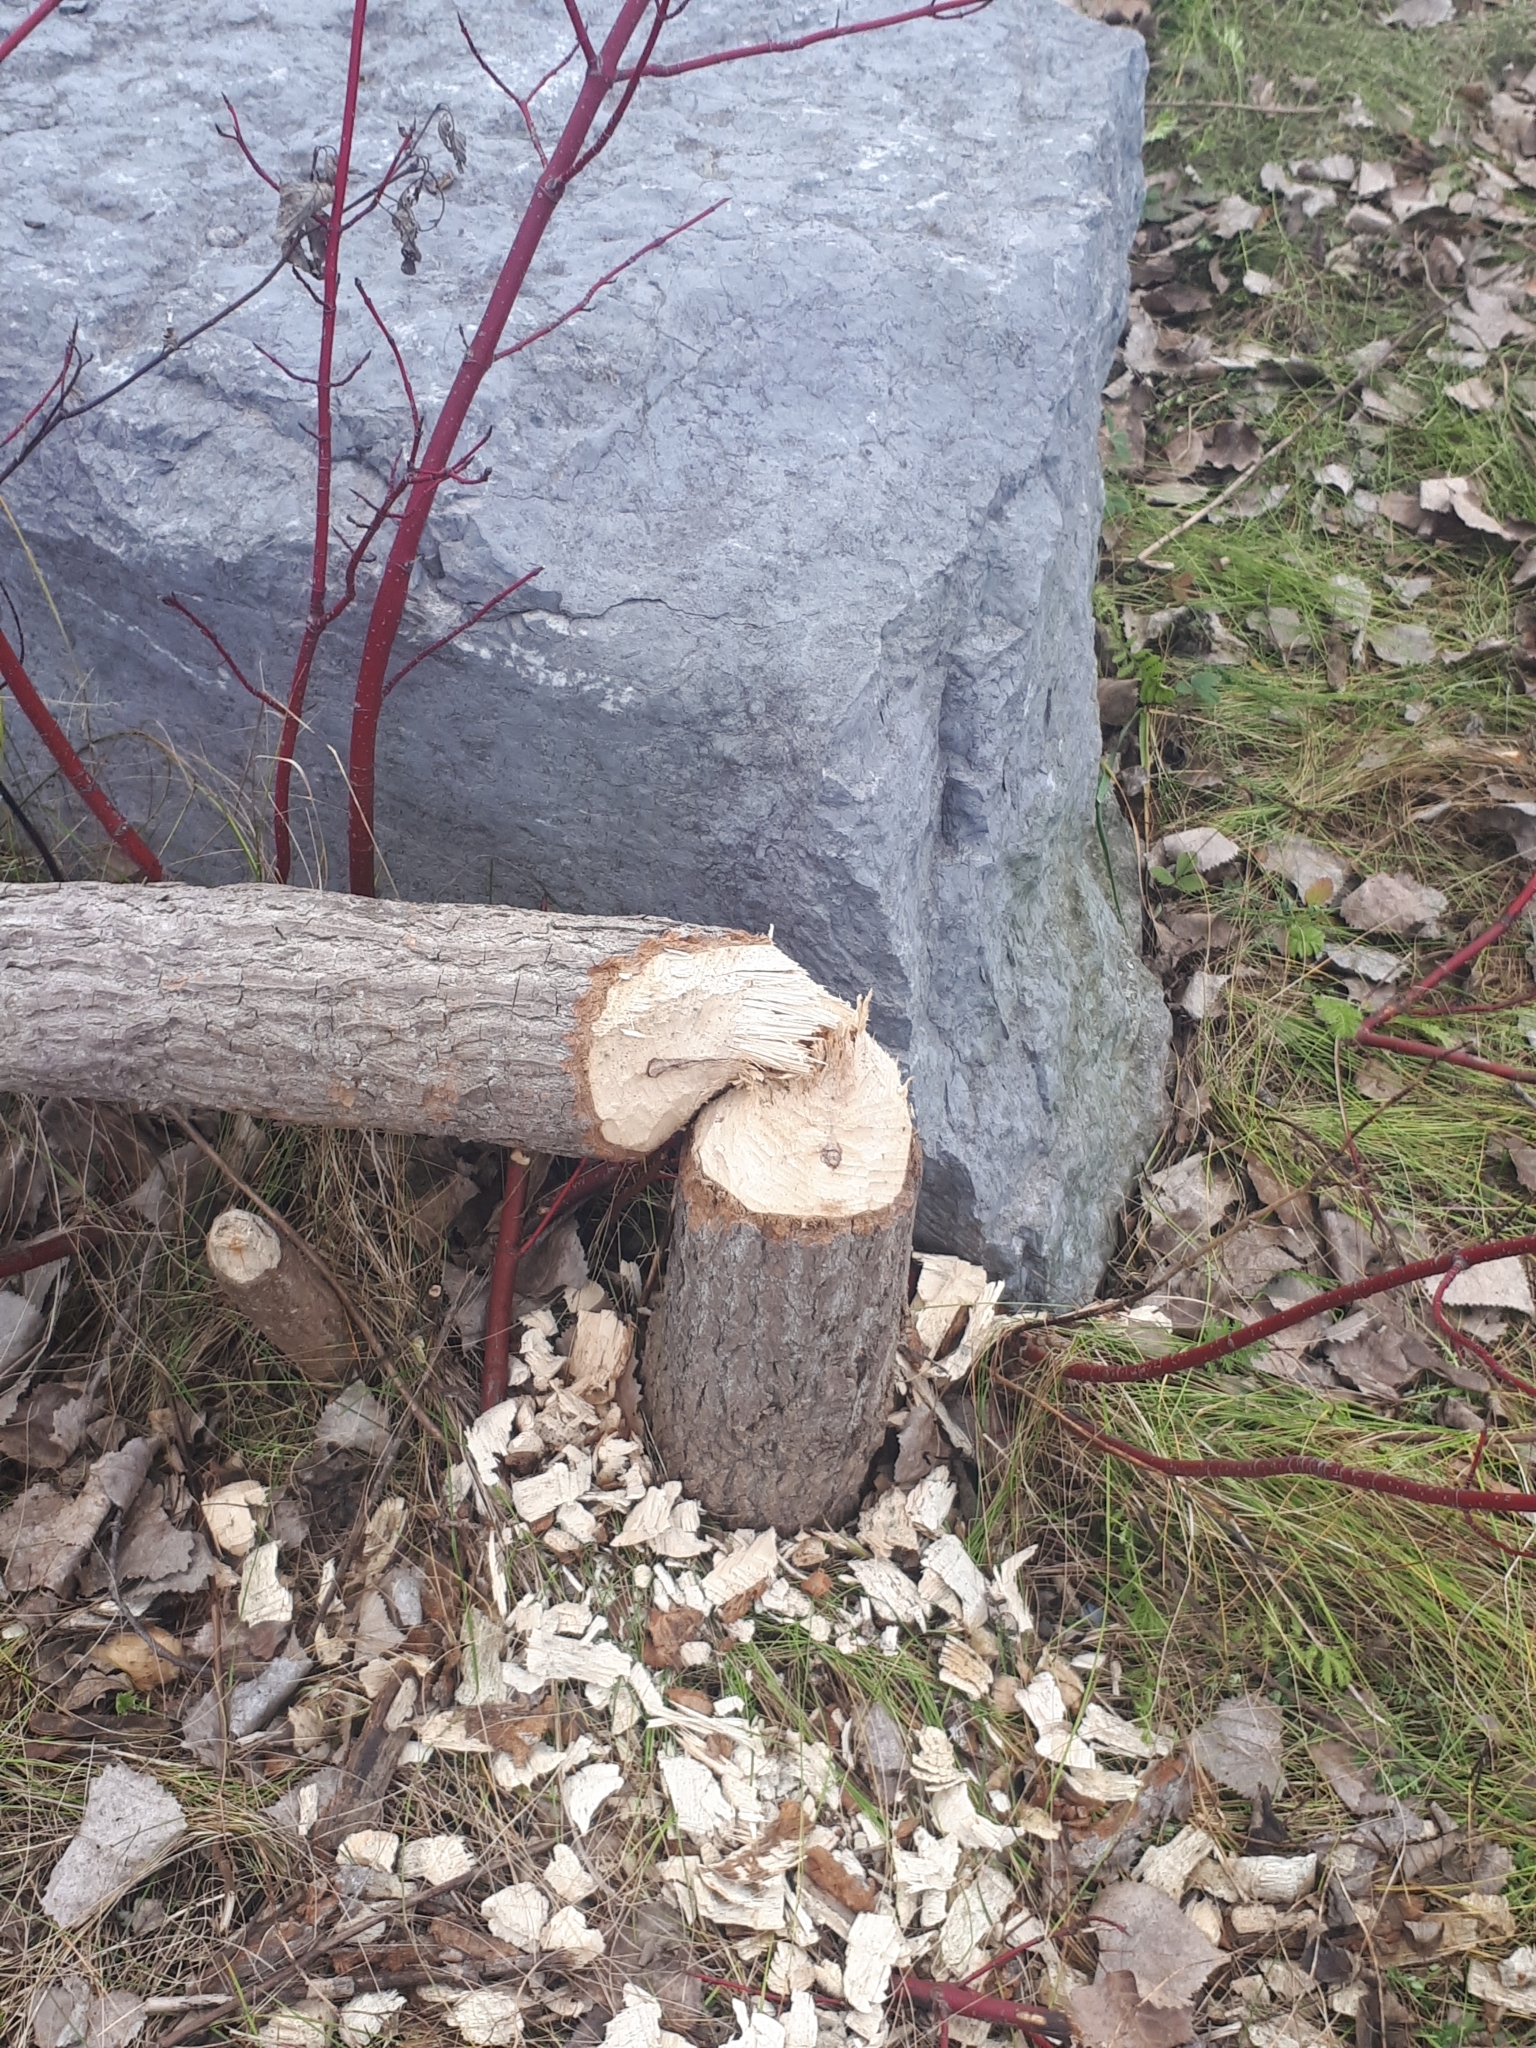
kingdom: Animalia
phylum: Chordata
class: Mammalia
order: Rodentia
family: Castoridae
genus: Castor
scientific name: Castor canadensis
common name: American beaver
